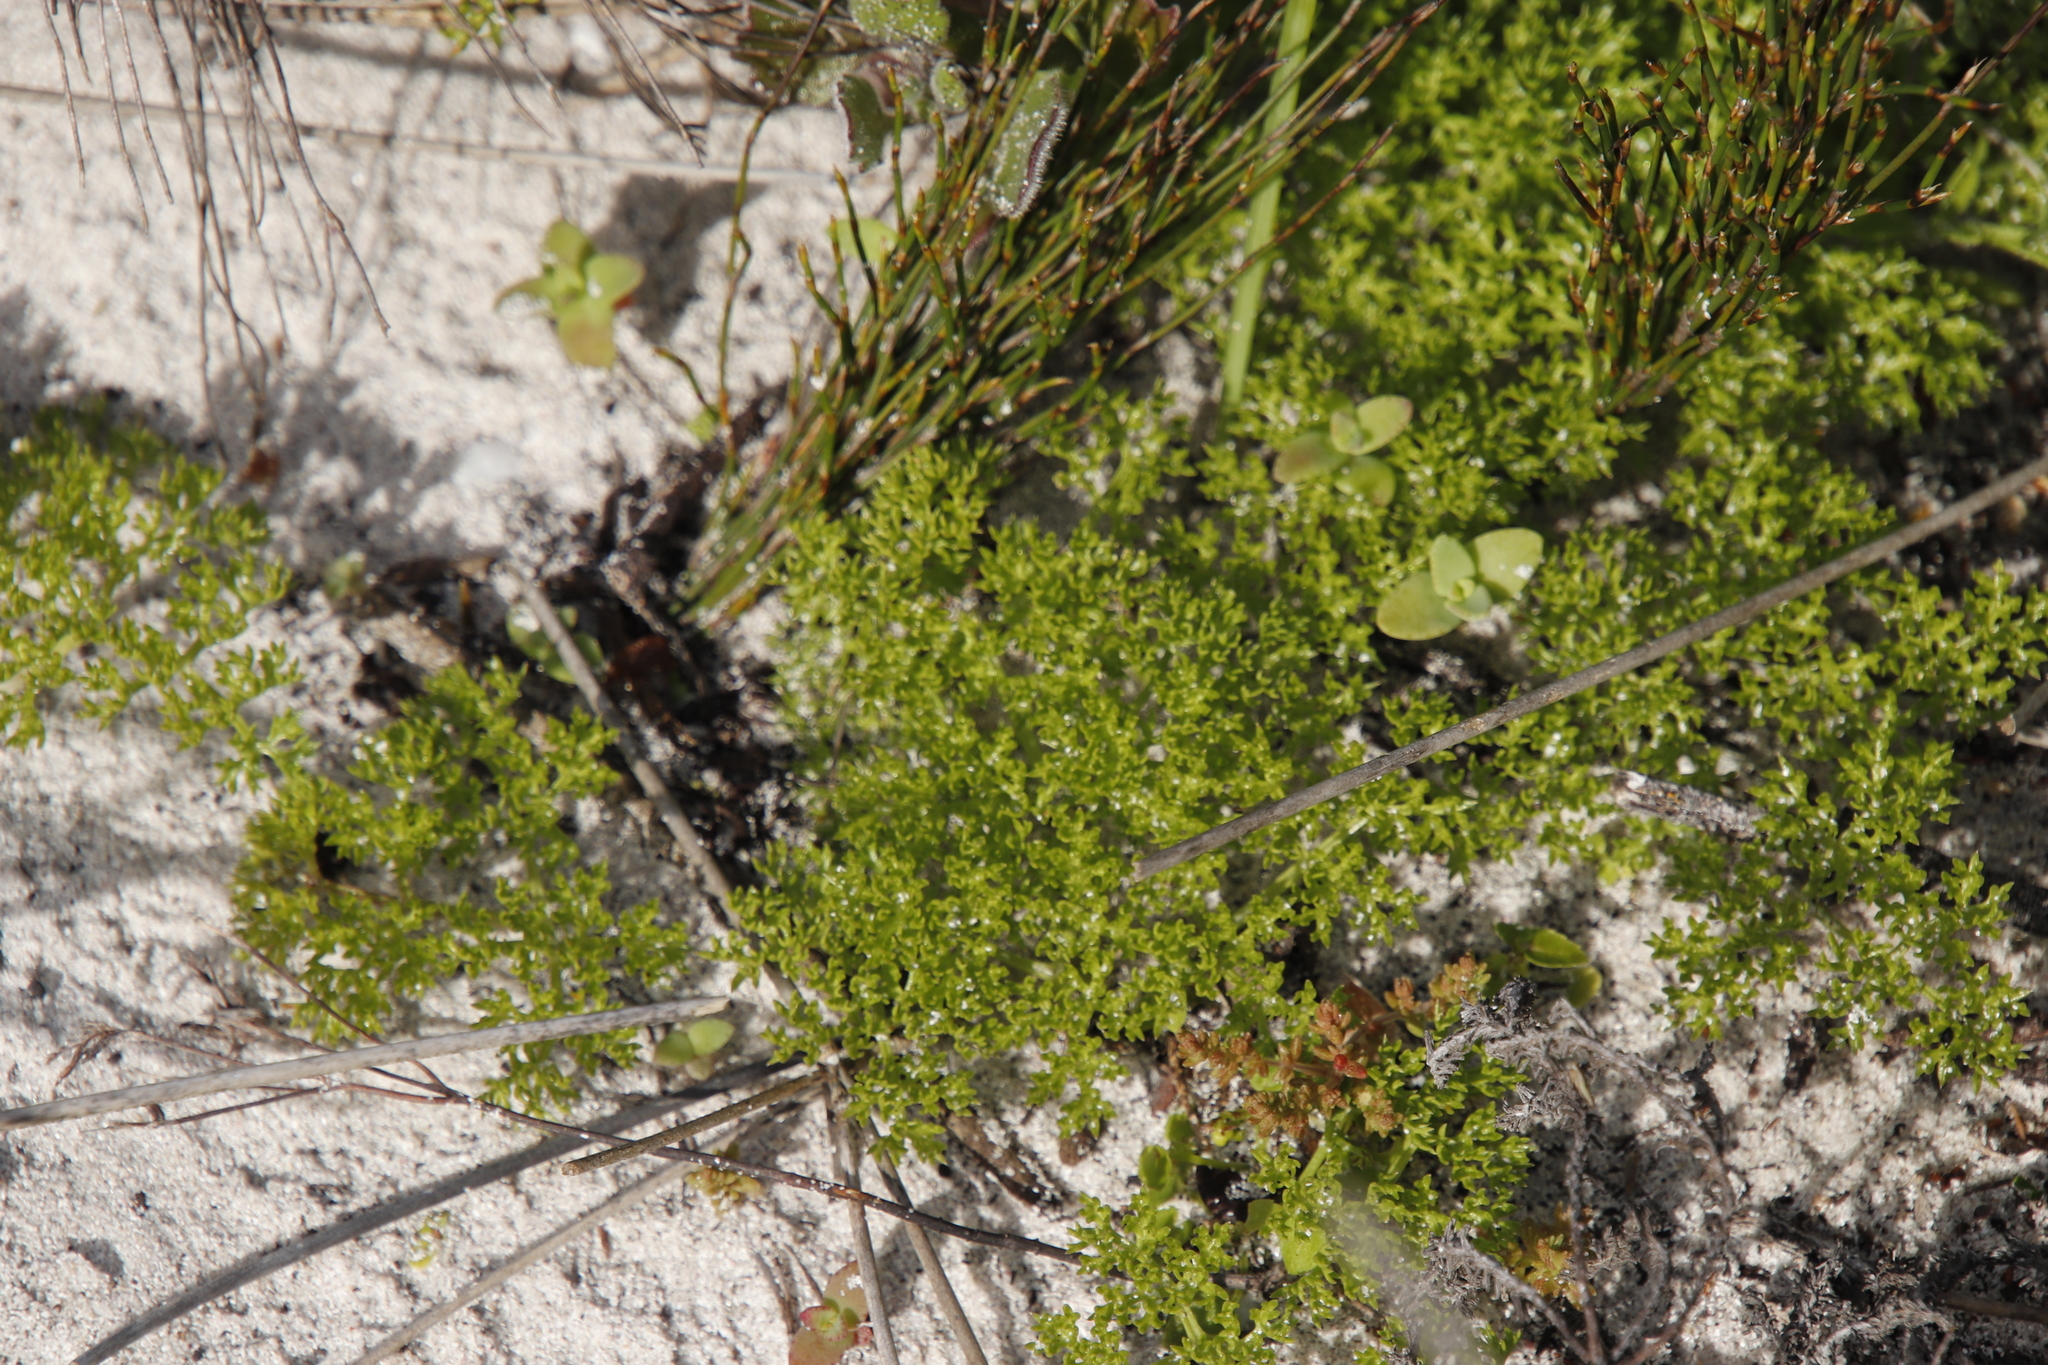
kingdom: Plantae
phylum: Tracheophyta
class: Magnoliopsida
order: Apiales
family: Apiaceae
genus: Annesorhiza
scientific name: Annesorhiza macrocarpa
